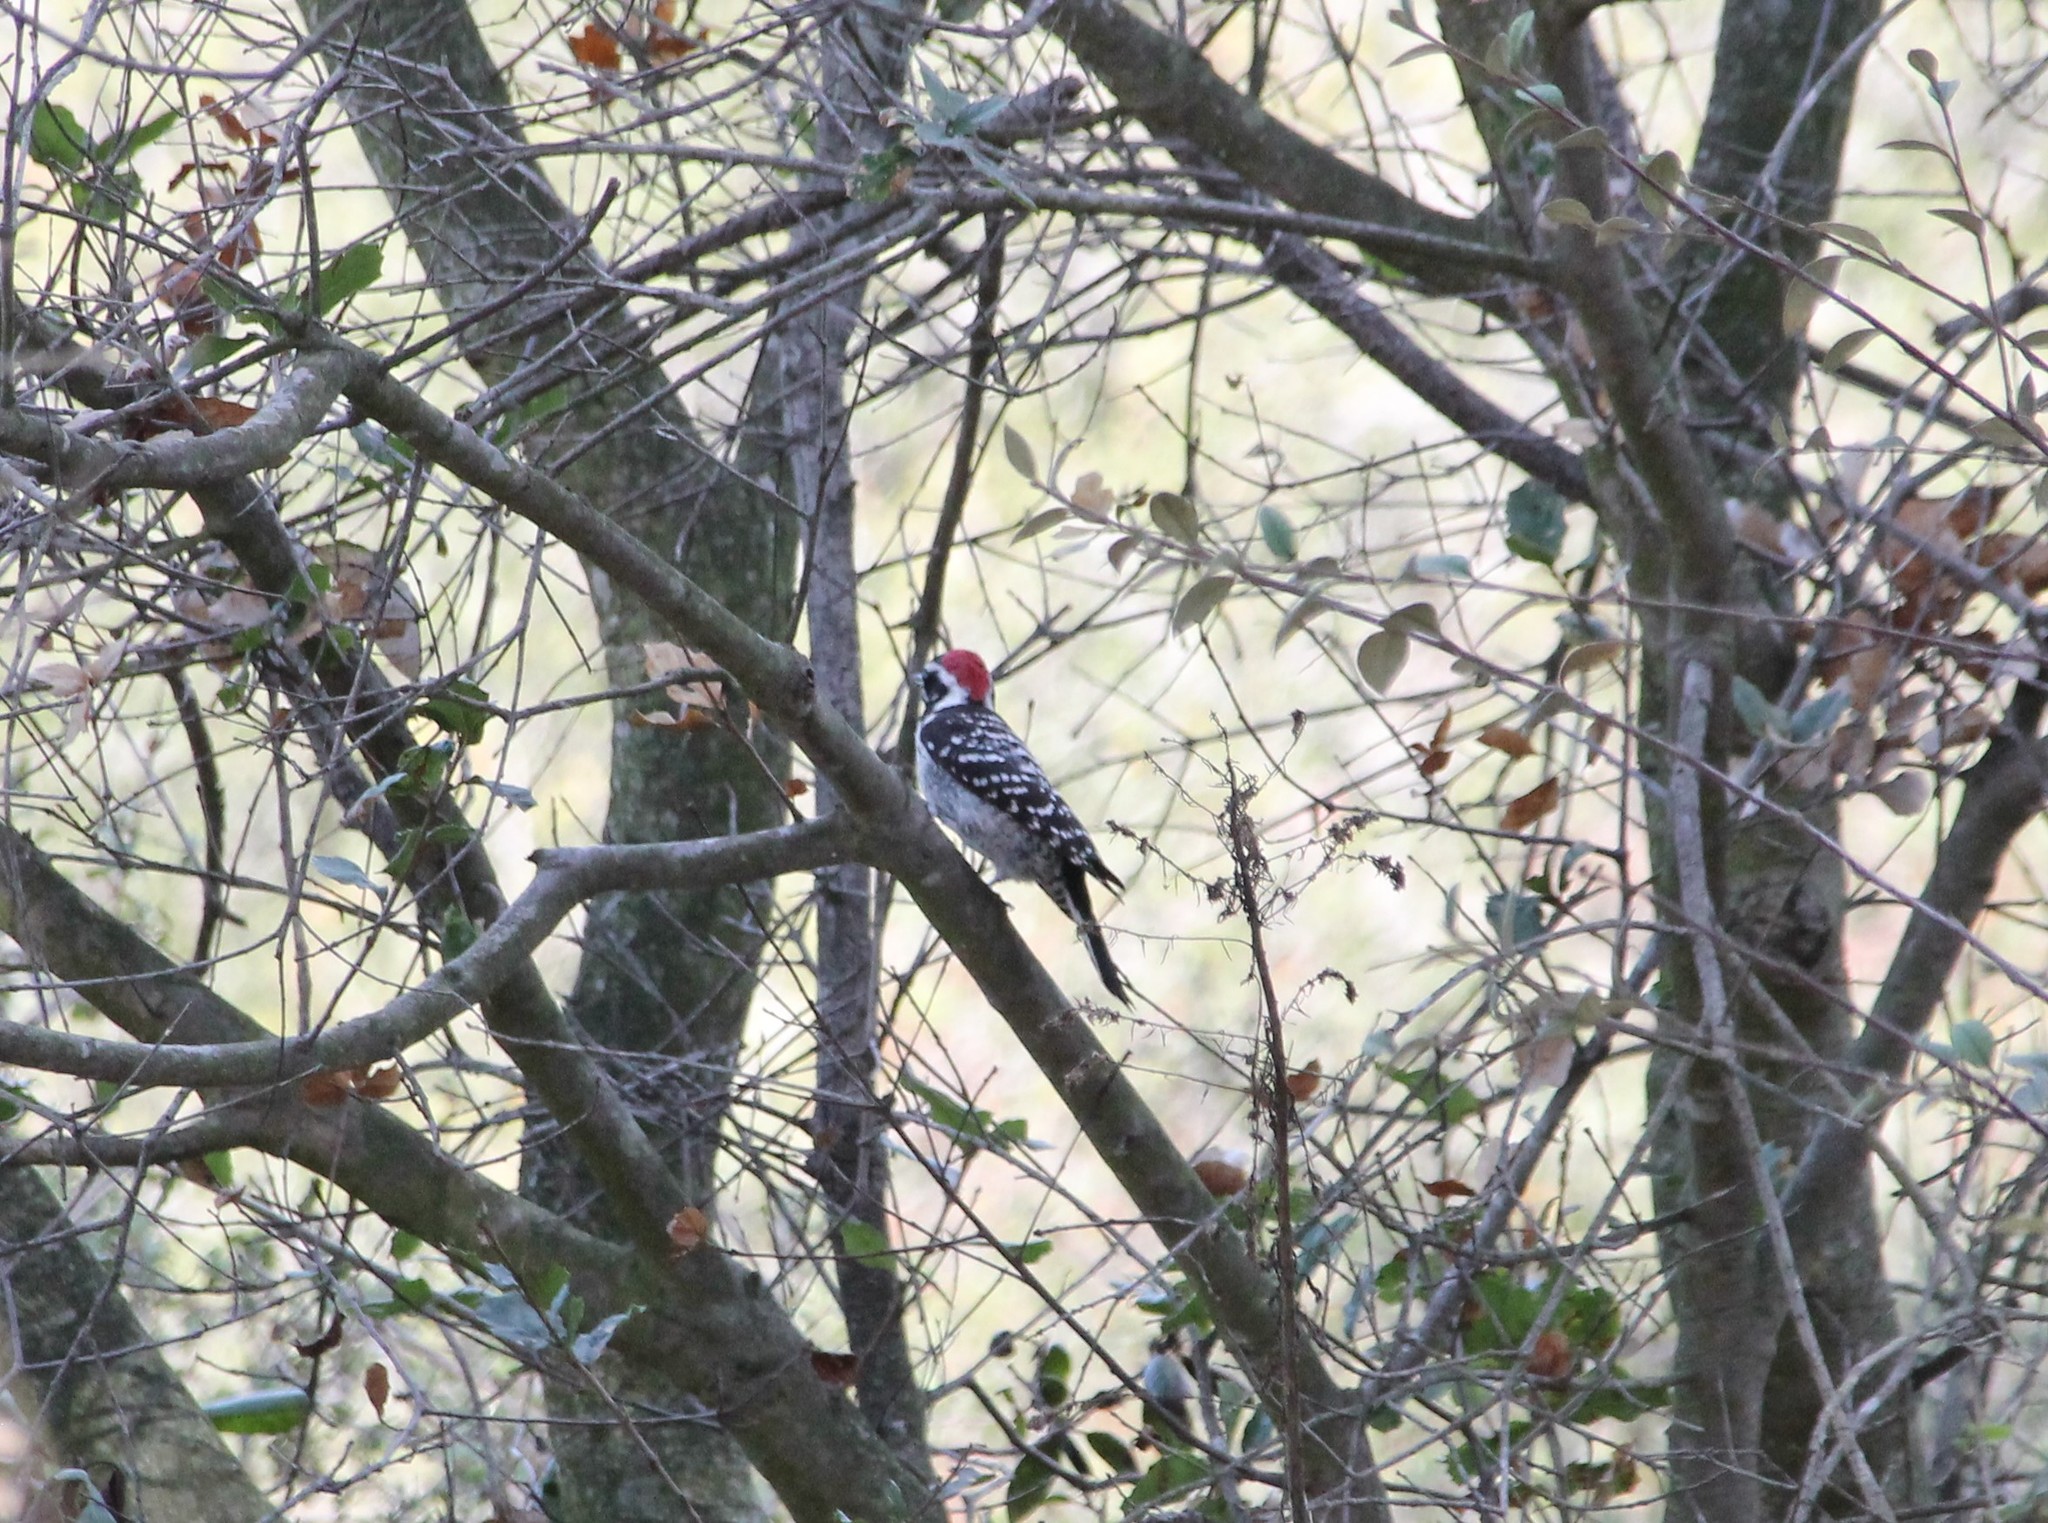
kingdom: Animalia
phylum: Chordata
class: Aves
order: Piciformes
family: Picidae
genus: Dryobates
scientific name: Dryobates nuttallii
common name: Nuttall's woodpecker
